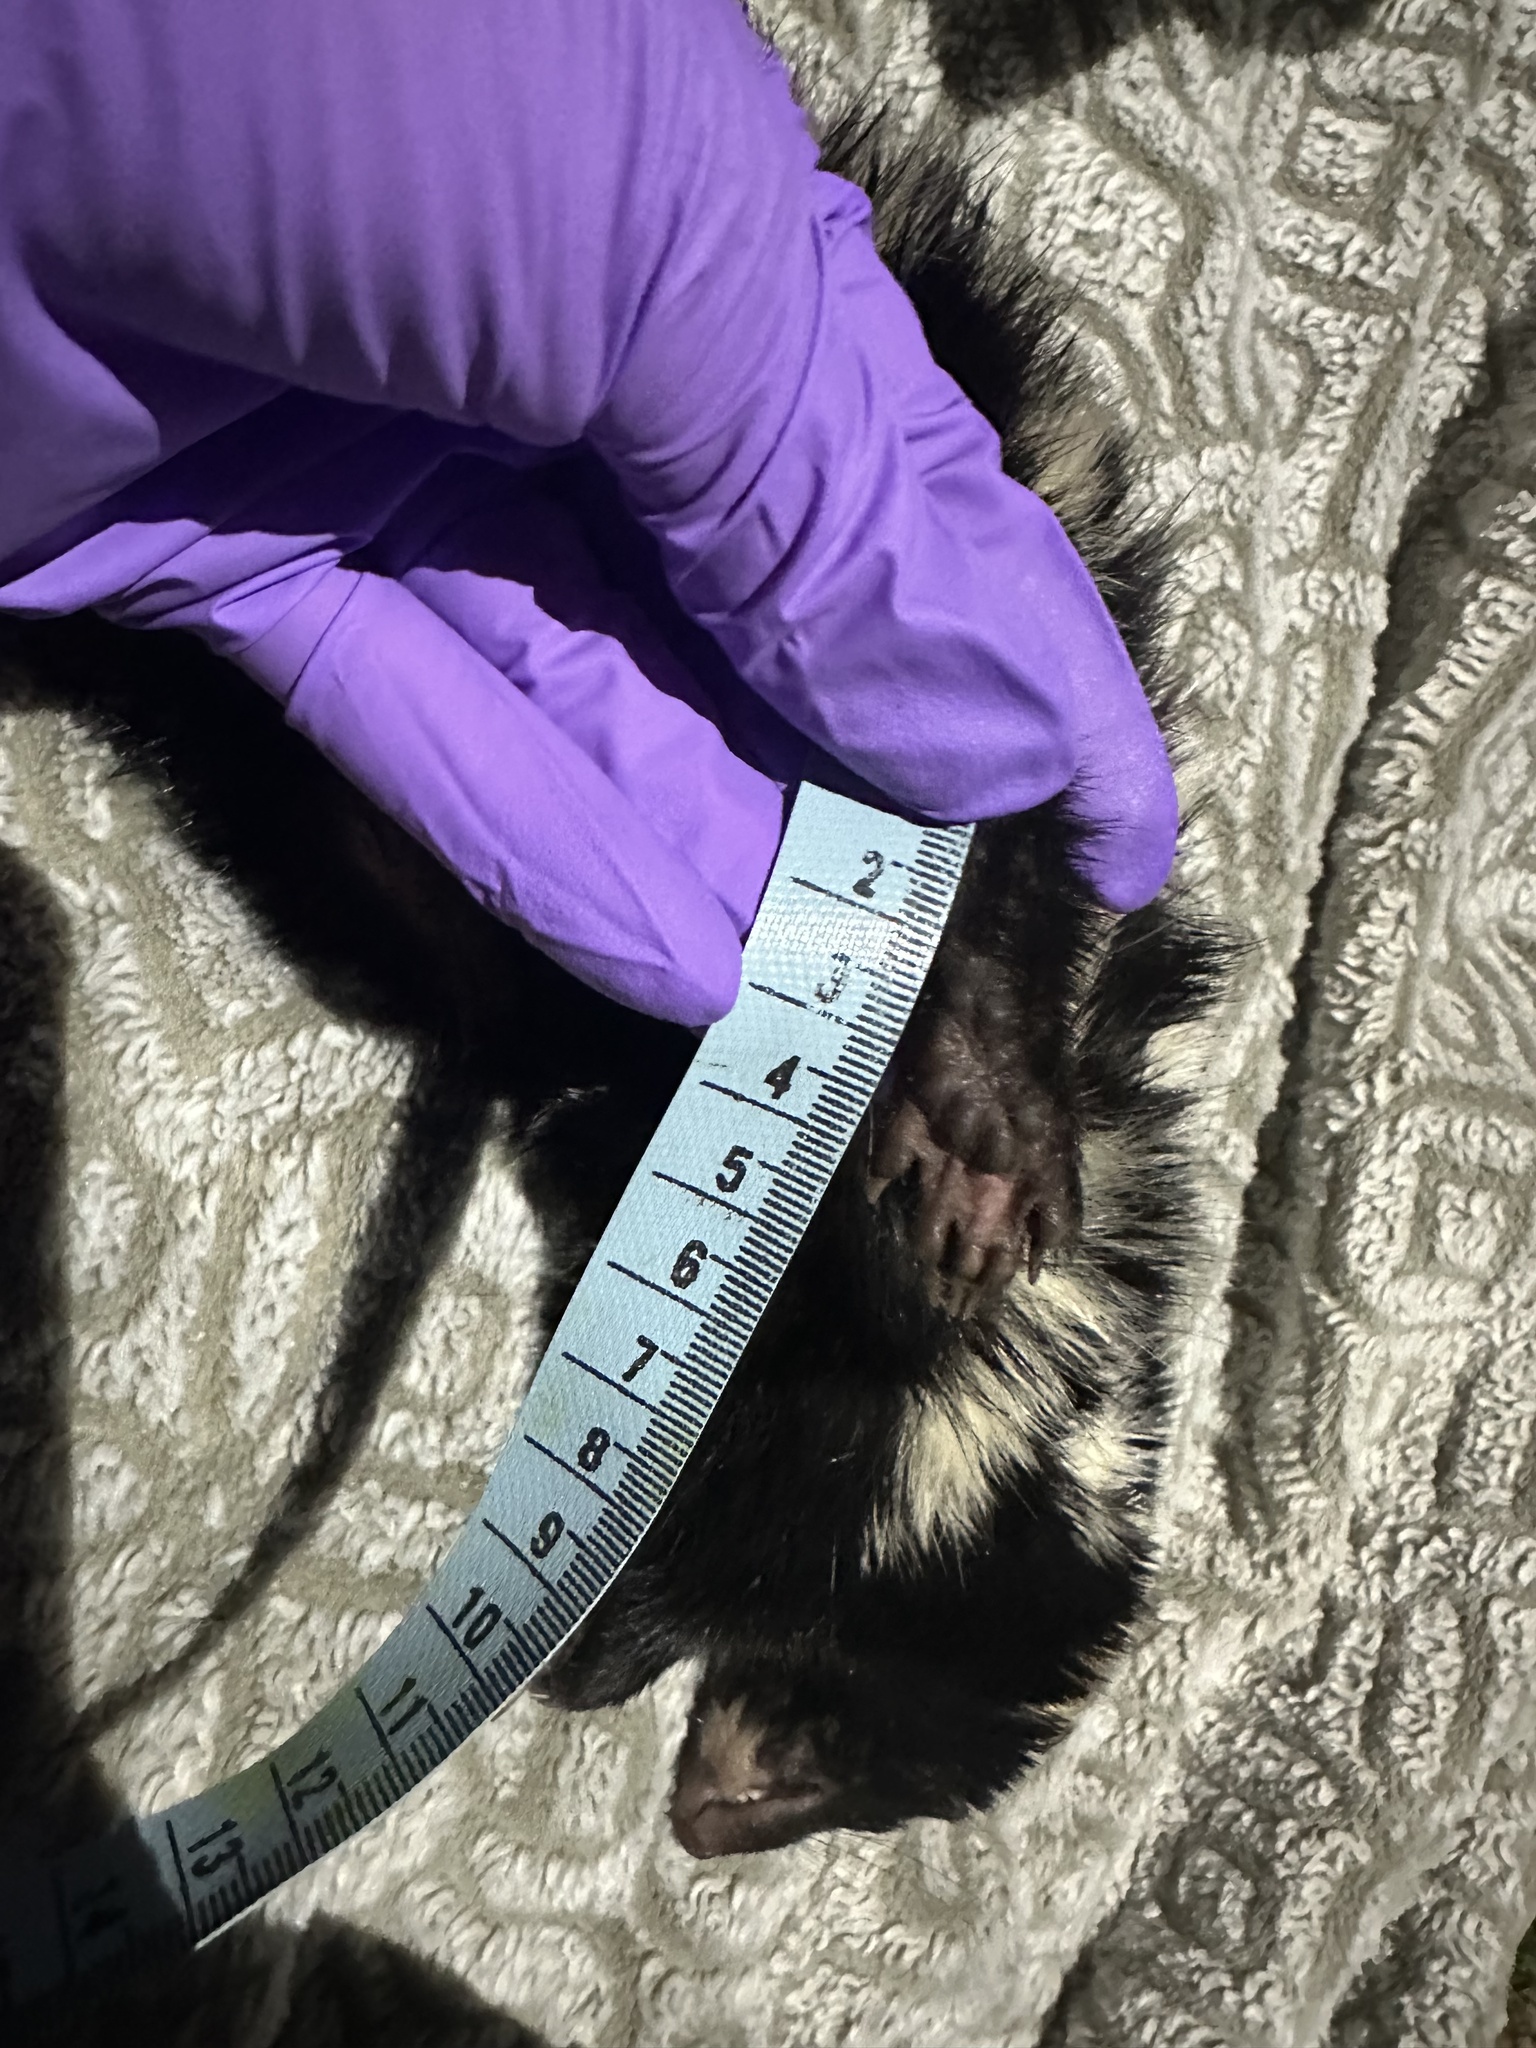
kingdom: Animalia
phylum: Chordata
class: Mammalia
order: Carnivora
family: Mephitidae
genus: Spilogale
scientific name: Spilogale putorius
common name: Eastern spotted skunk
